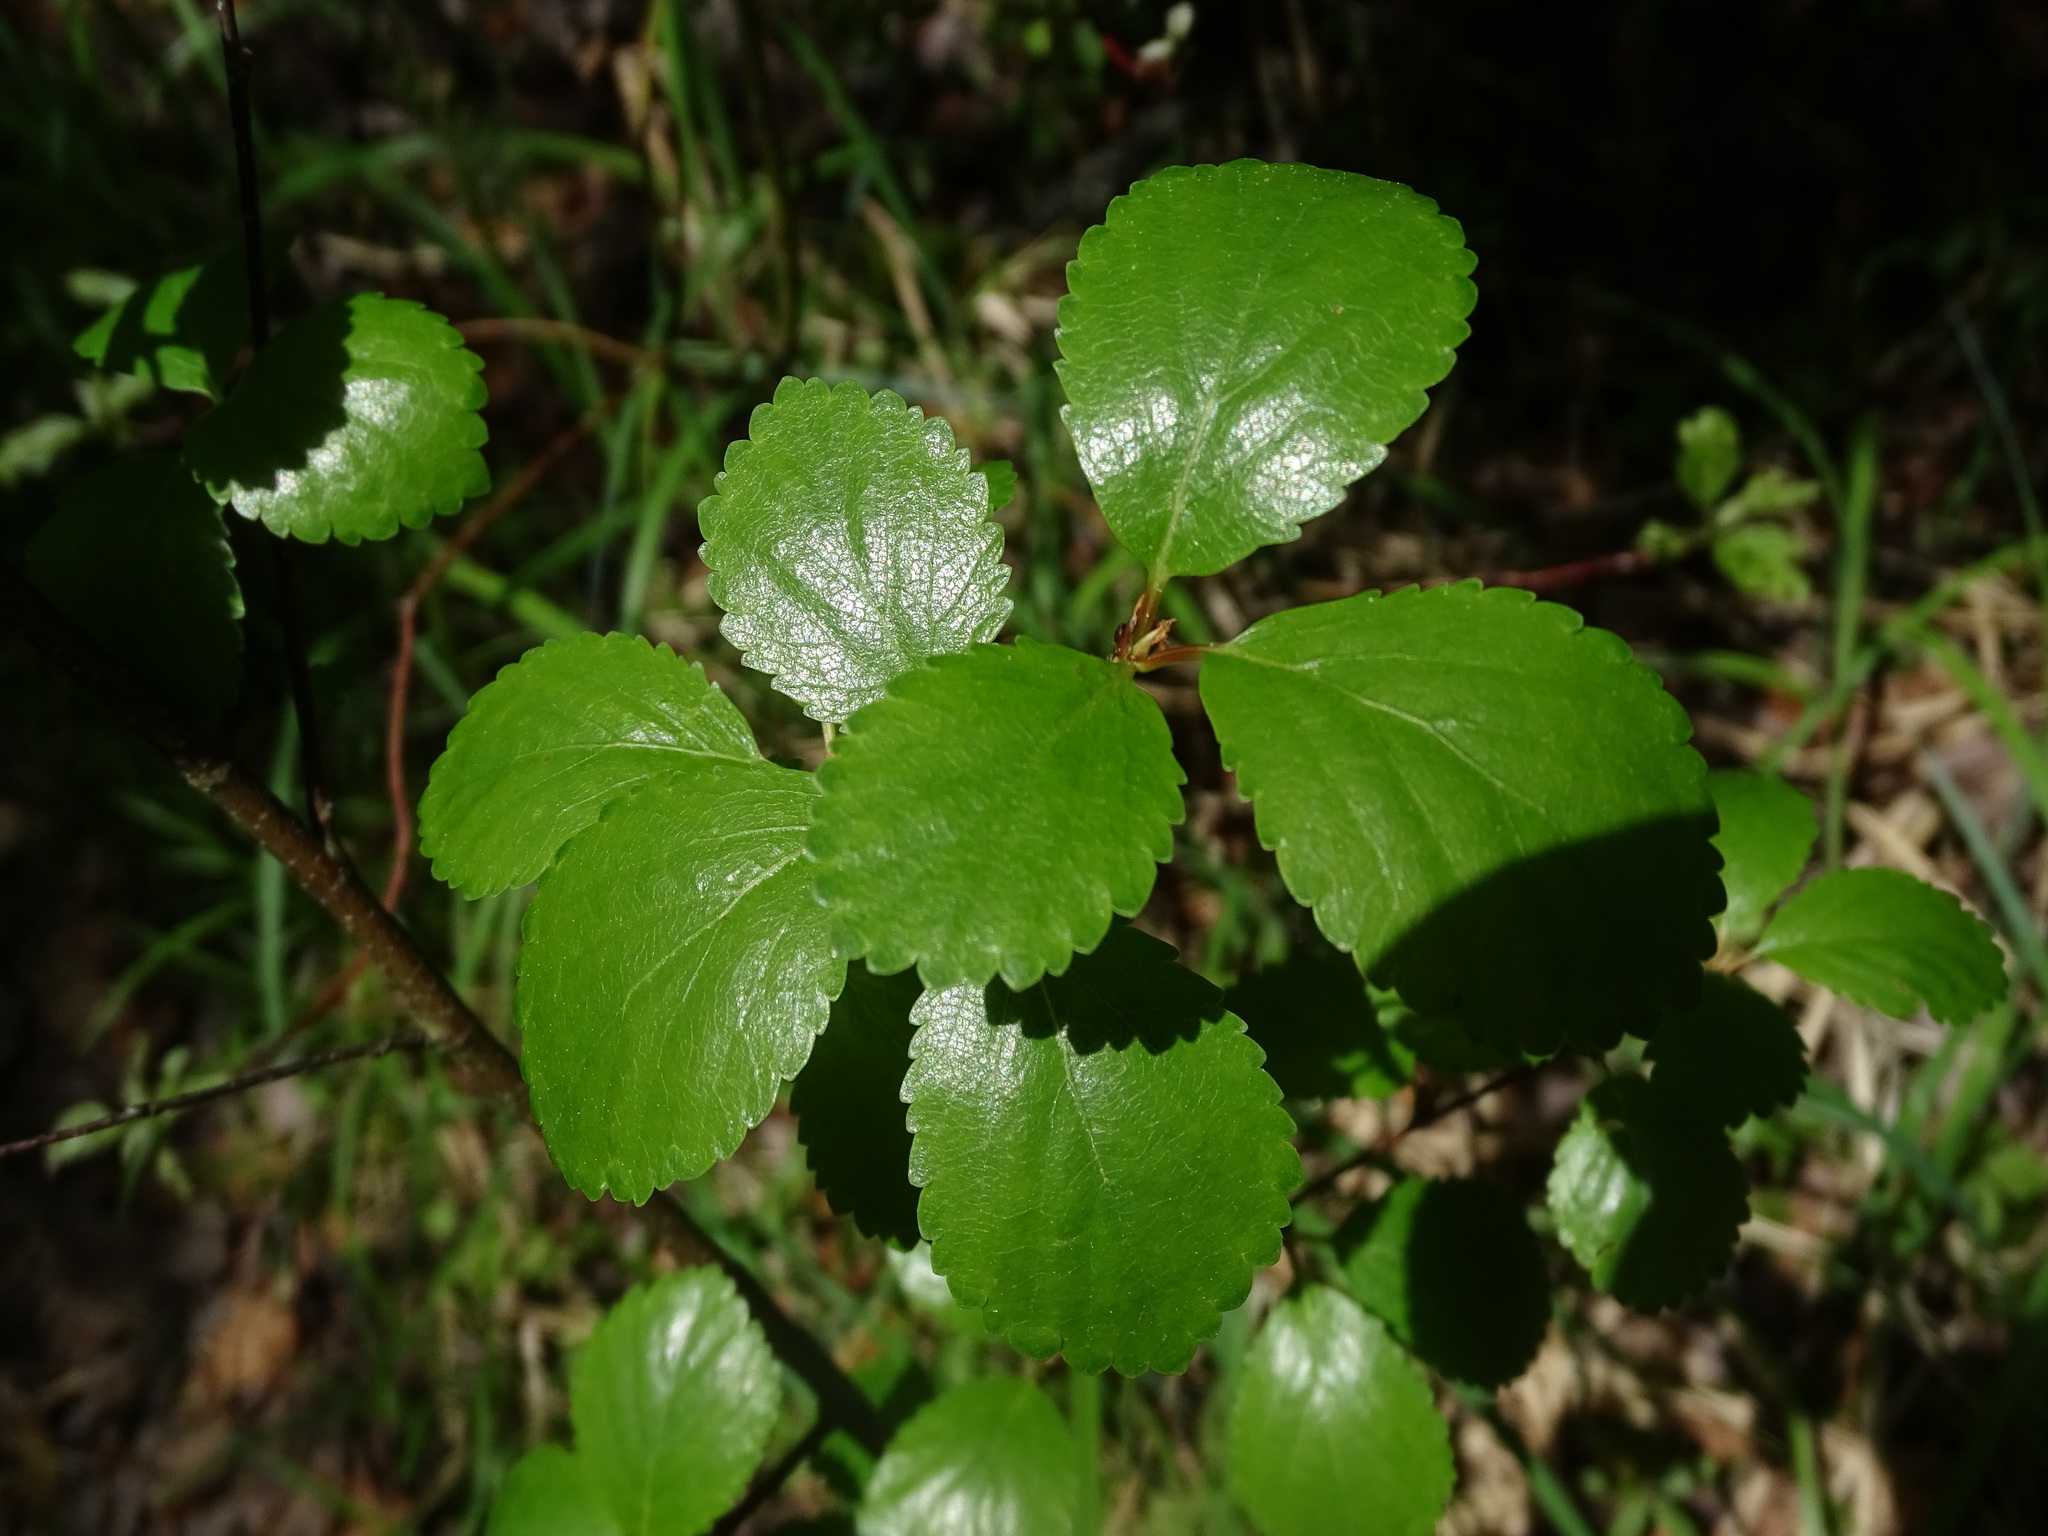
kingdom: Plantae
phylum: Tracheophyta
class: Magnoliopsida
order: Fagales
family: Betulaceae
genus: Betula
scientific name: Betula pumila
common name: Bog birch
